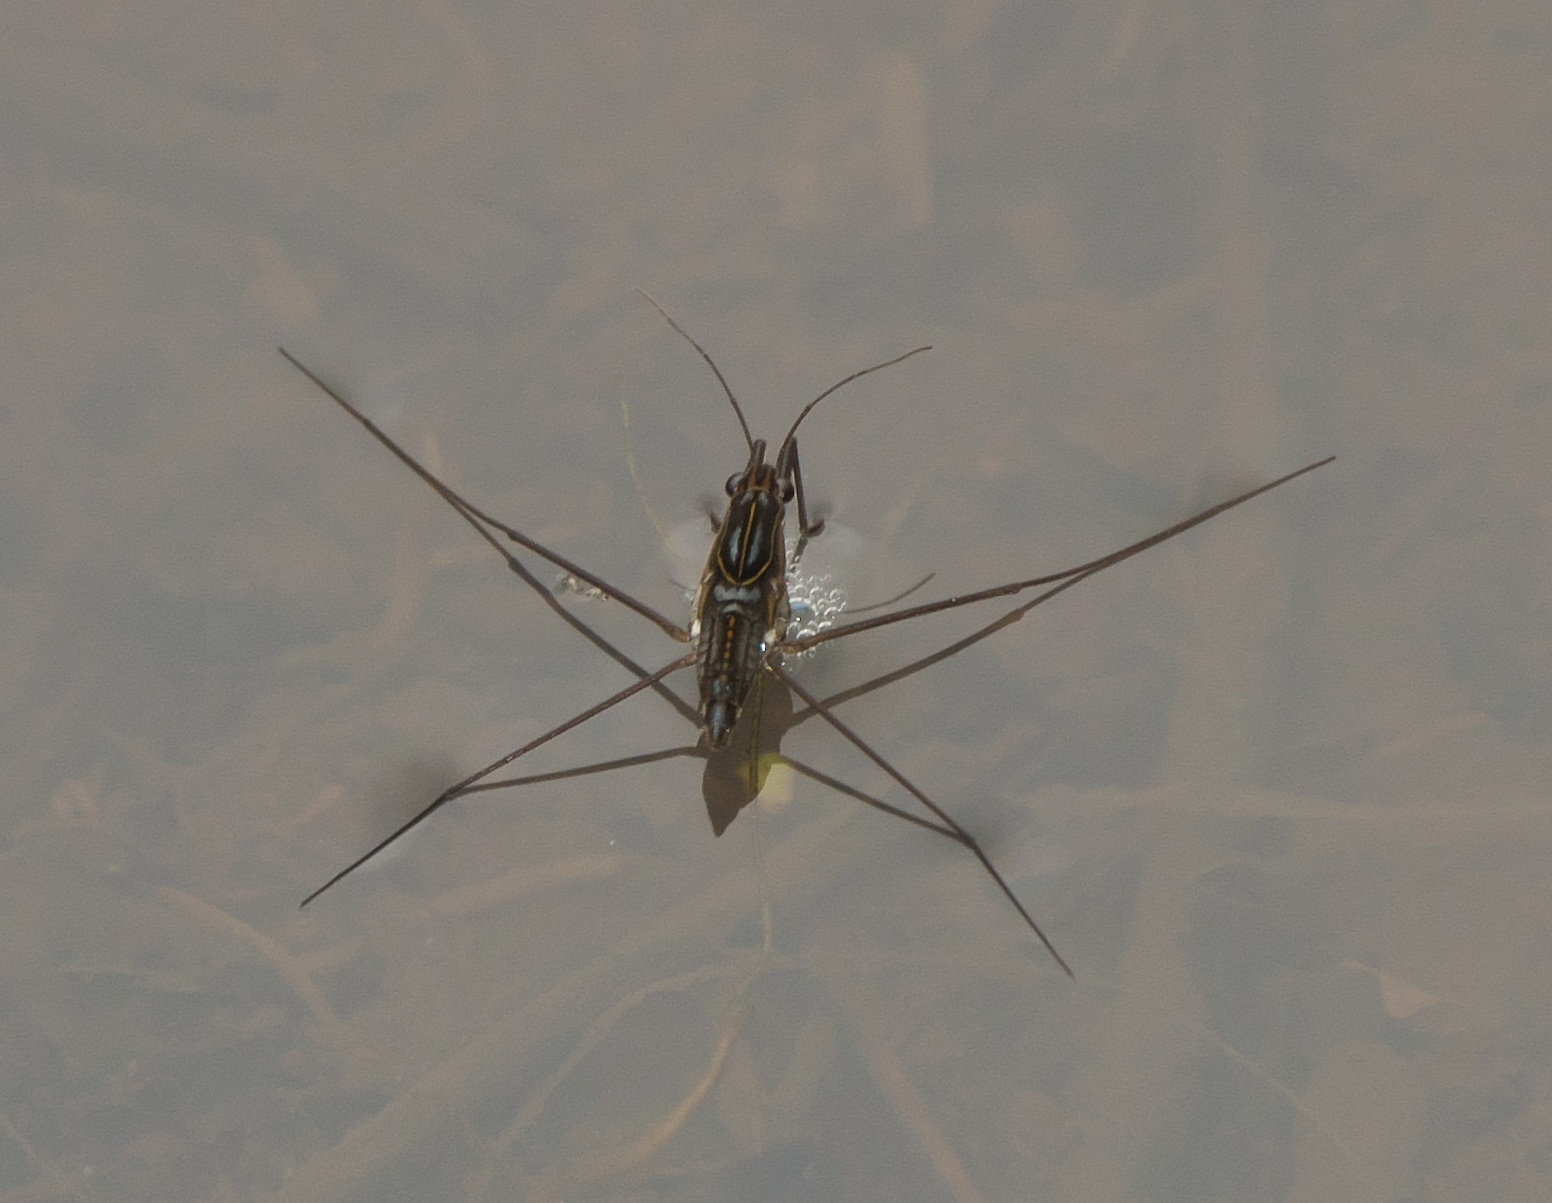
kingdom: Animalia
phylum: Arthropoda
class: Insecta
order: Hemiptera
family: Gerridae
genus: Limnogonus
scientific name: Limnogonus
